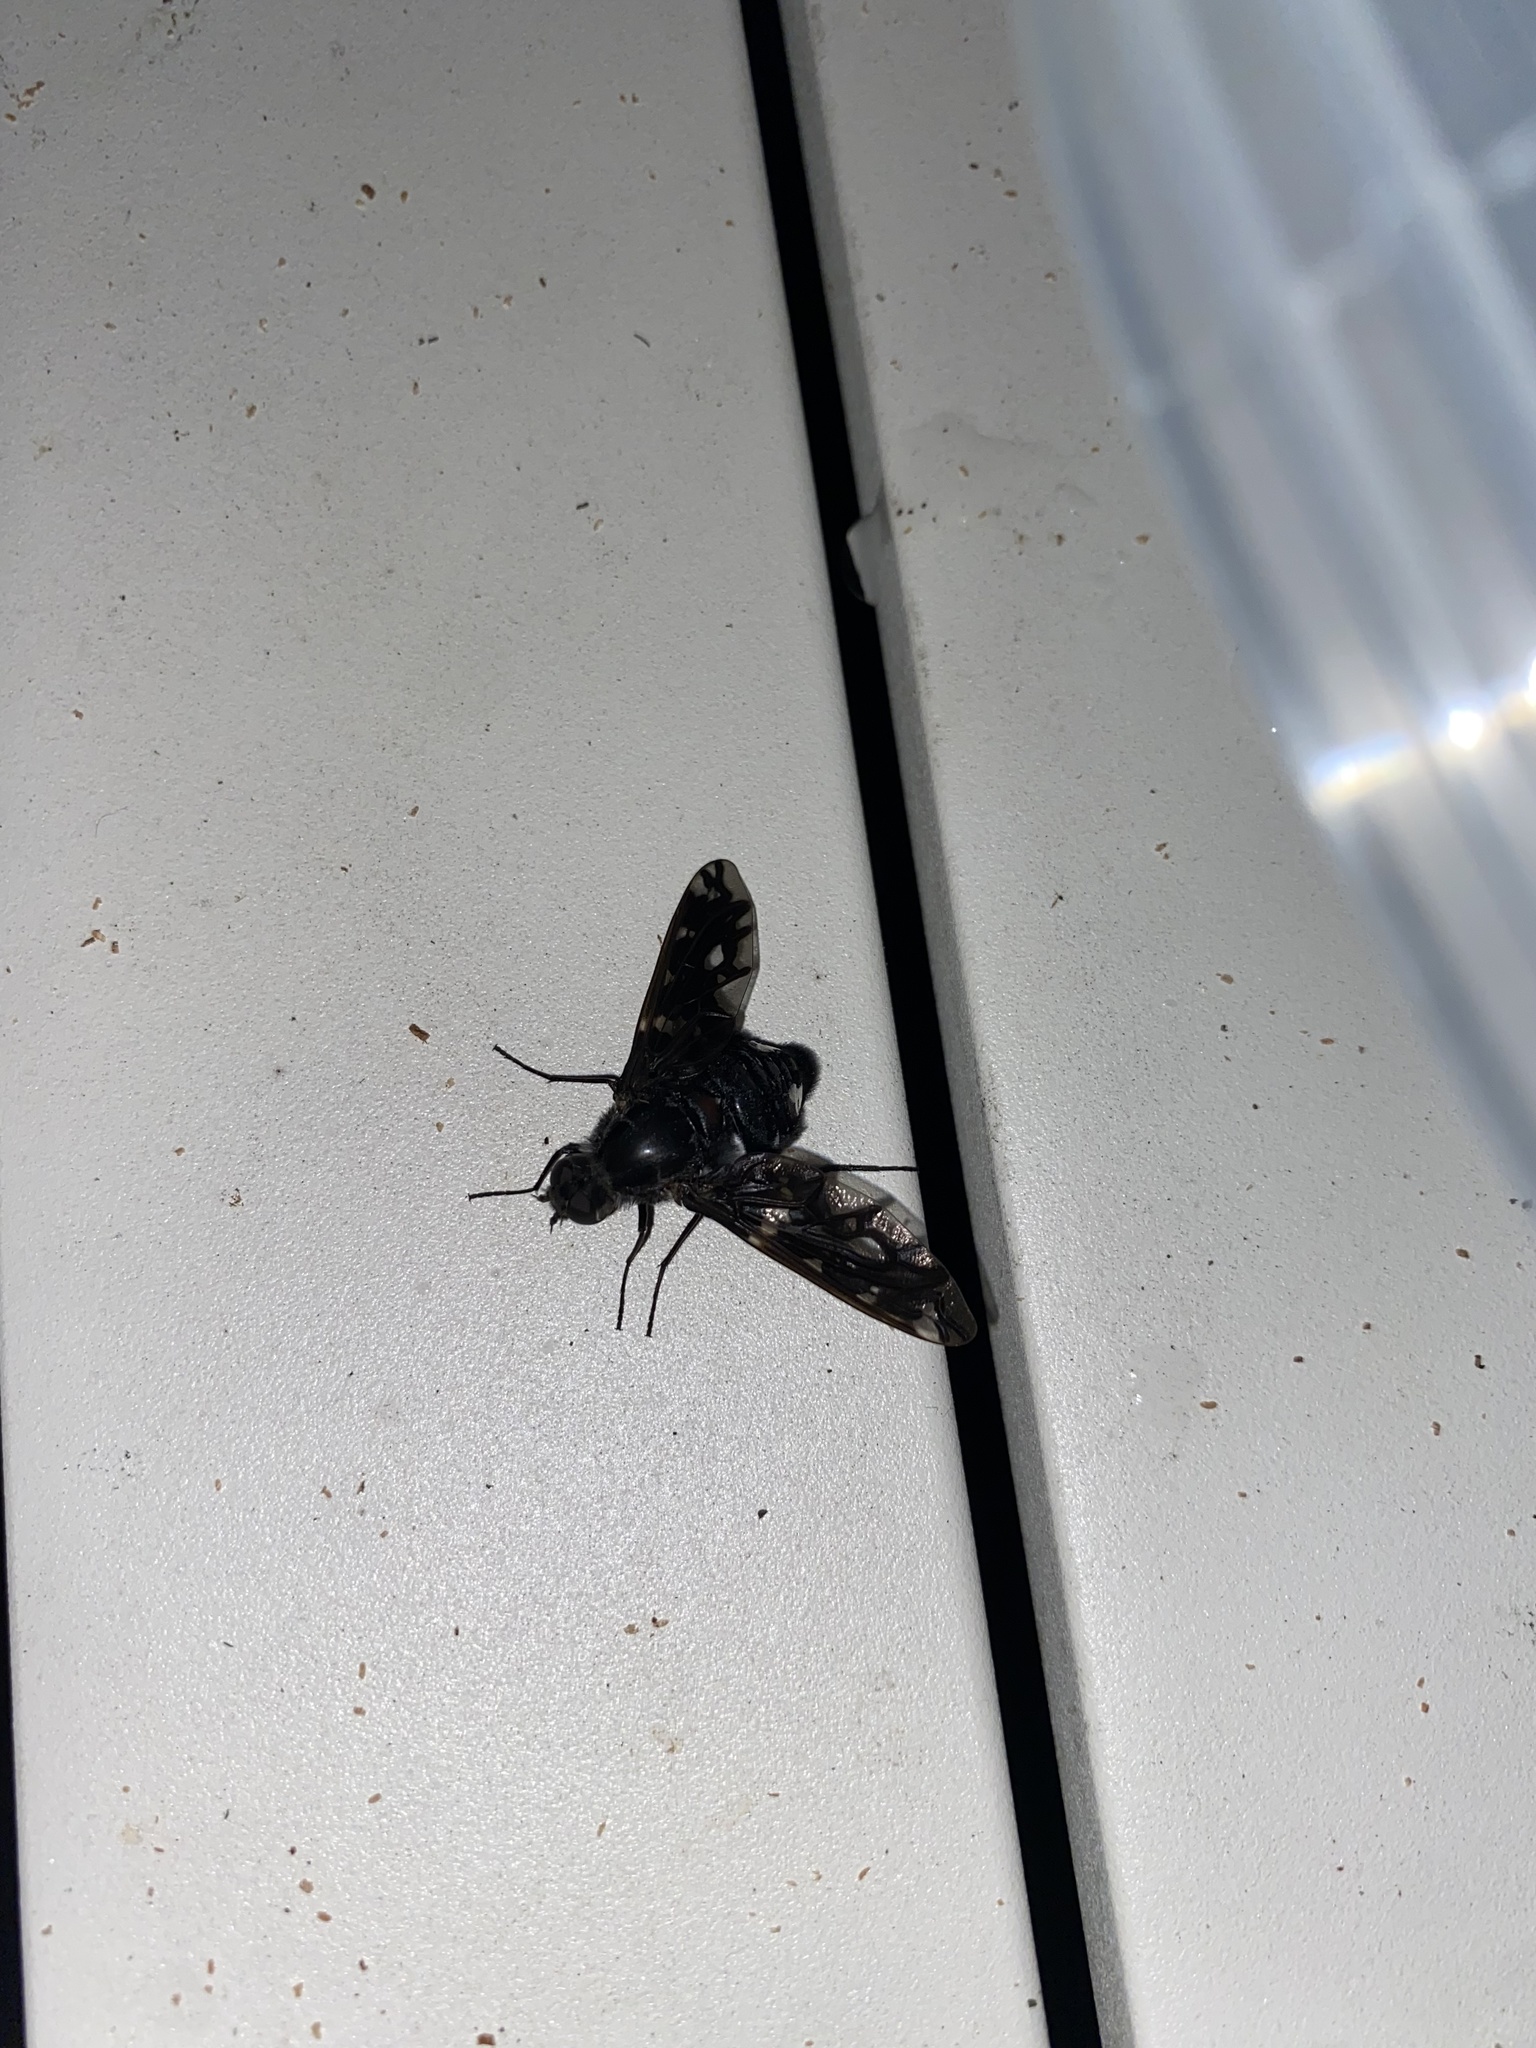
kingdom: Animalia
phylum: Arthropoda
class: Insecta
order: Diptera
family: Bombyliidae
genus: Xenox
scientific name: Xenox tigrinus
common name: Tiger bee fly
